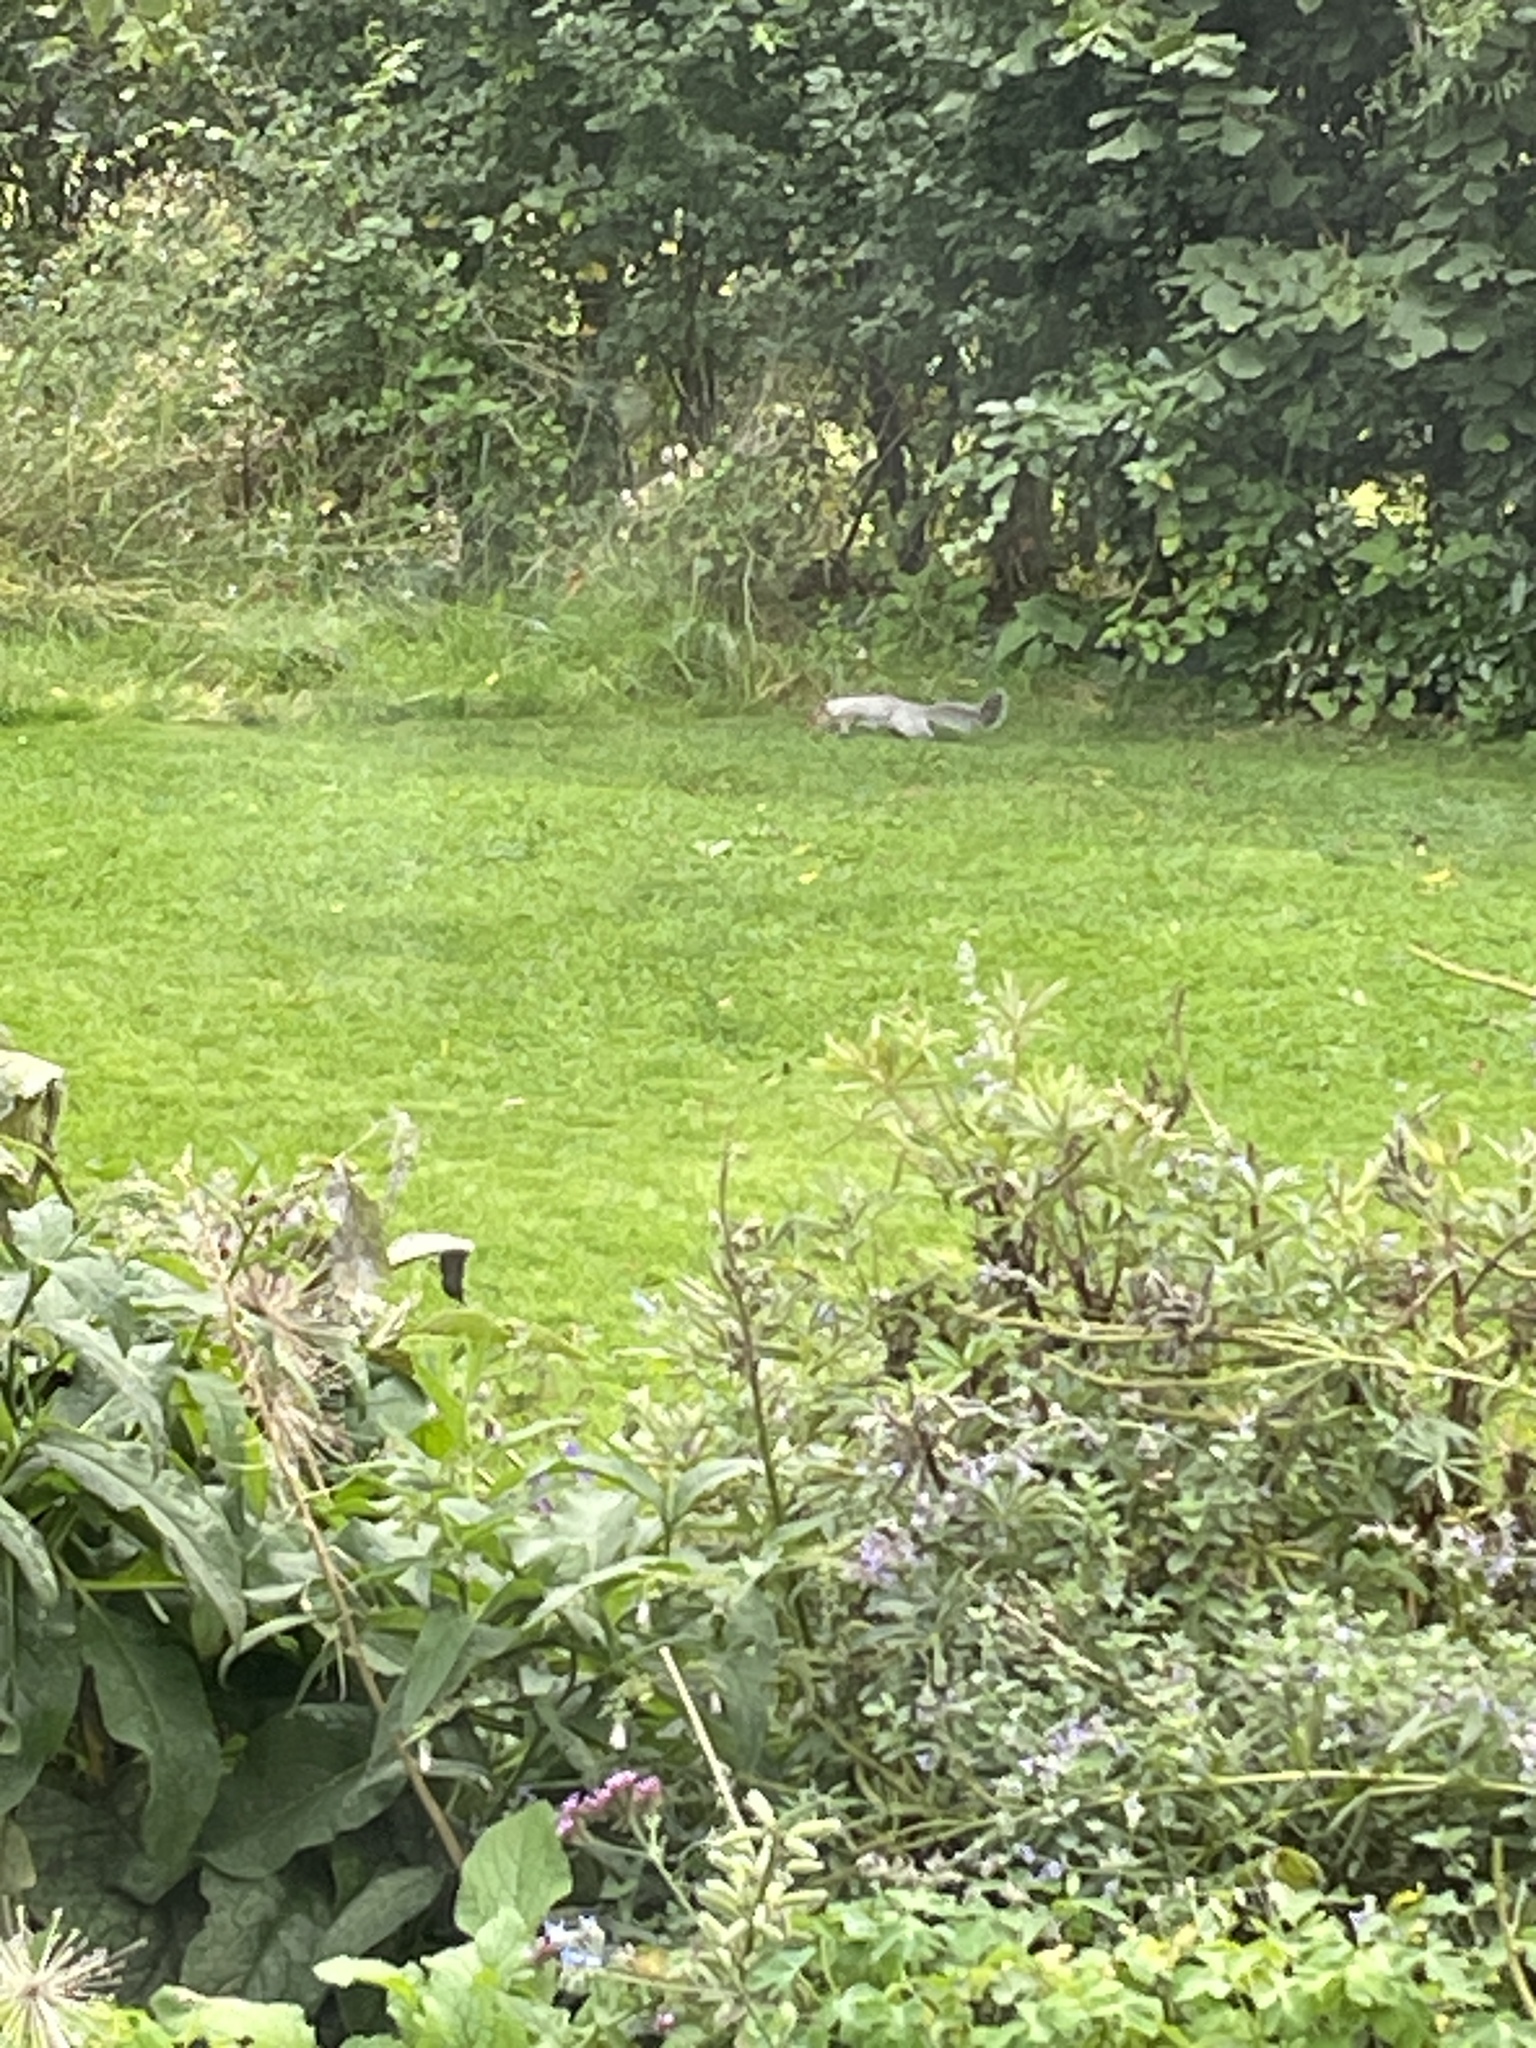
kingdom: Animalia
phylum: Chordata
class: Mammalia
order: Rodentia
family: Sciuridae
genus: Sciurus
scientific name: Sciurus carolinensis
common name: Eastern gray squirrel
